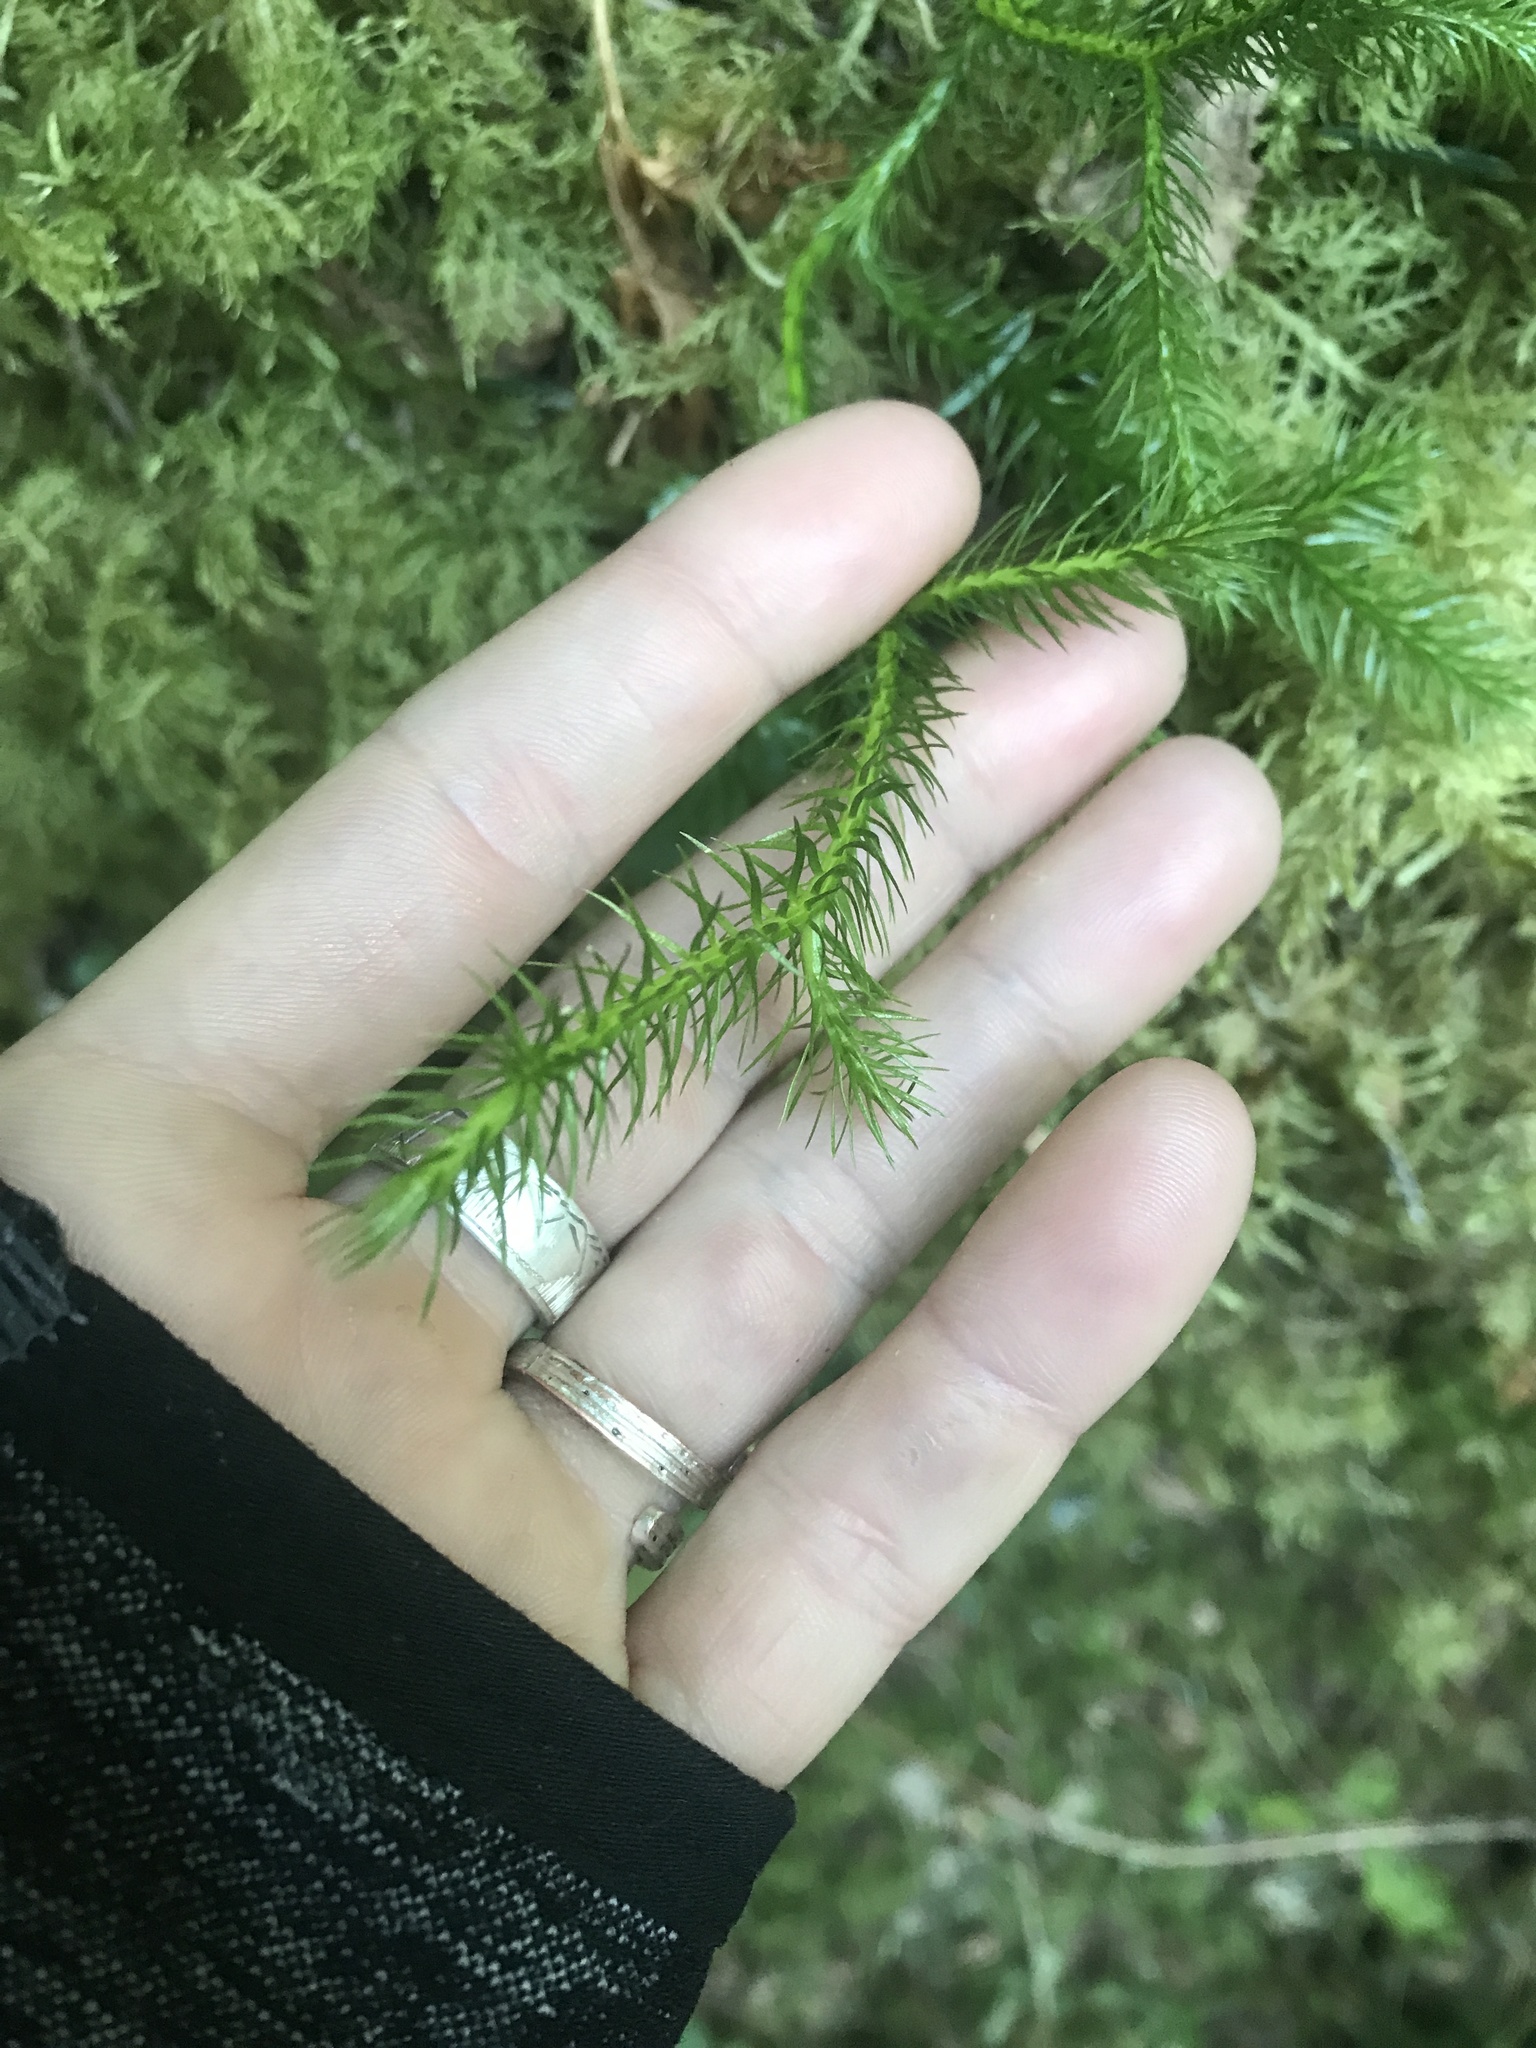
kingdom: Plantae
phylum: Tracheophyta
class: Lycopodiopsida
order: Lycopodiales
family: Lycopodiaceae
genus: Lycopodium
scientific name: Lycopodium clavatum
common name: Stag's-horn clubmoss
